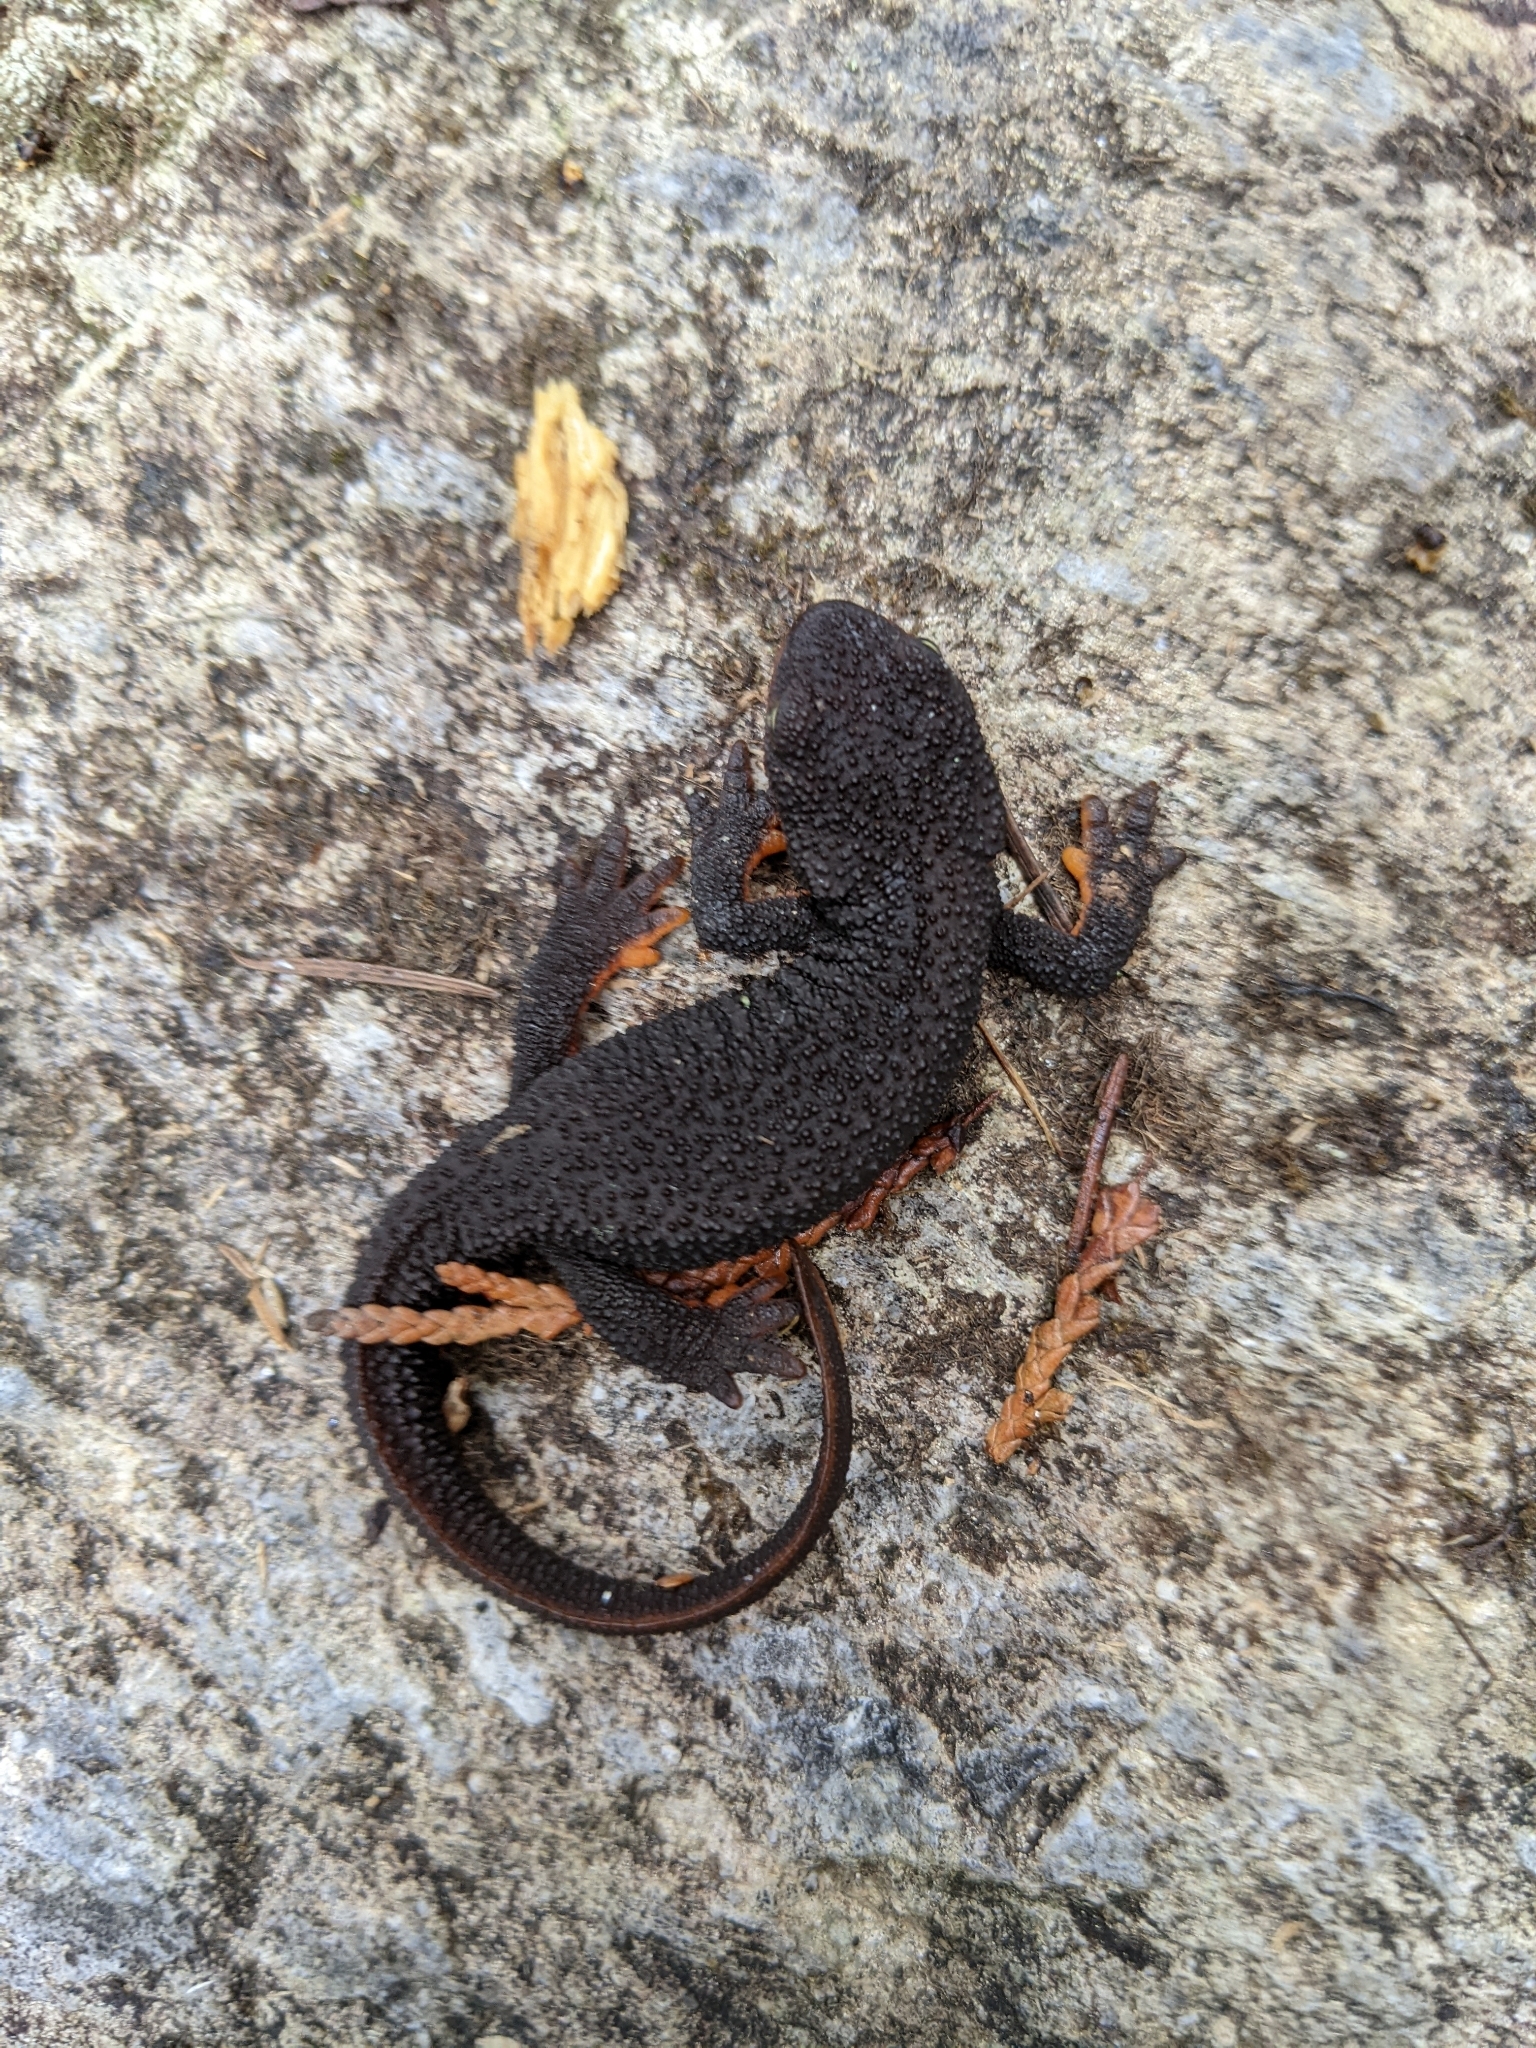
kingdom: Animalia
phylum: Chordata
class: Amphibia
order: Caudata
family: Salamandridae
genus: Taricha
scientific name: Taricha granulosa
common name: Roughskin newt
